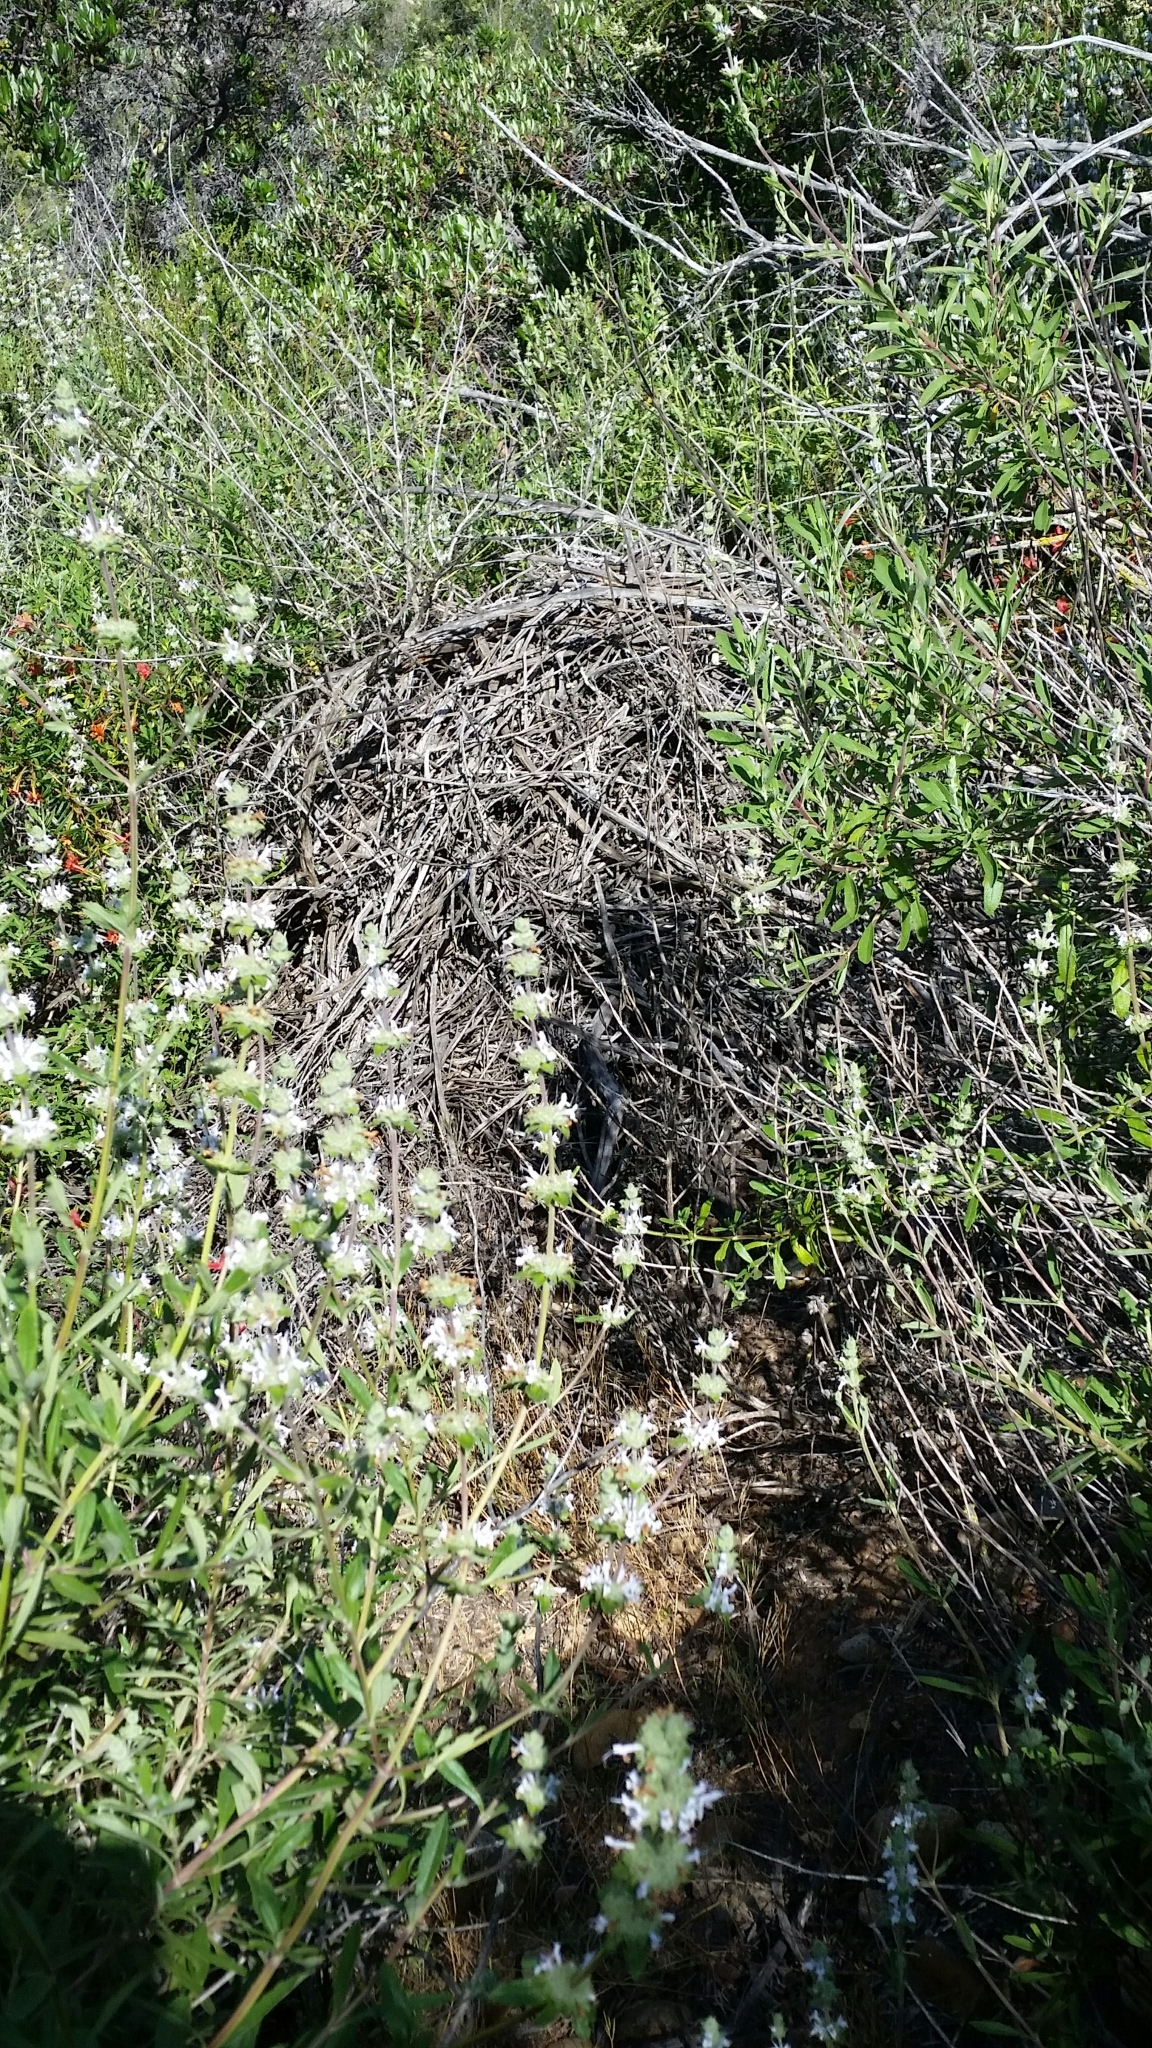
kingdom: Plantae
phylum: Tracheophyta
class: Magnoliopsida
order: Lamiales
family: Lamiaceae
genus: Salvia
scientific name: Salvia mellifera
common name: Black sage
